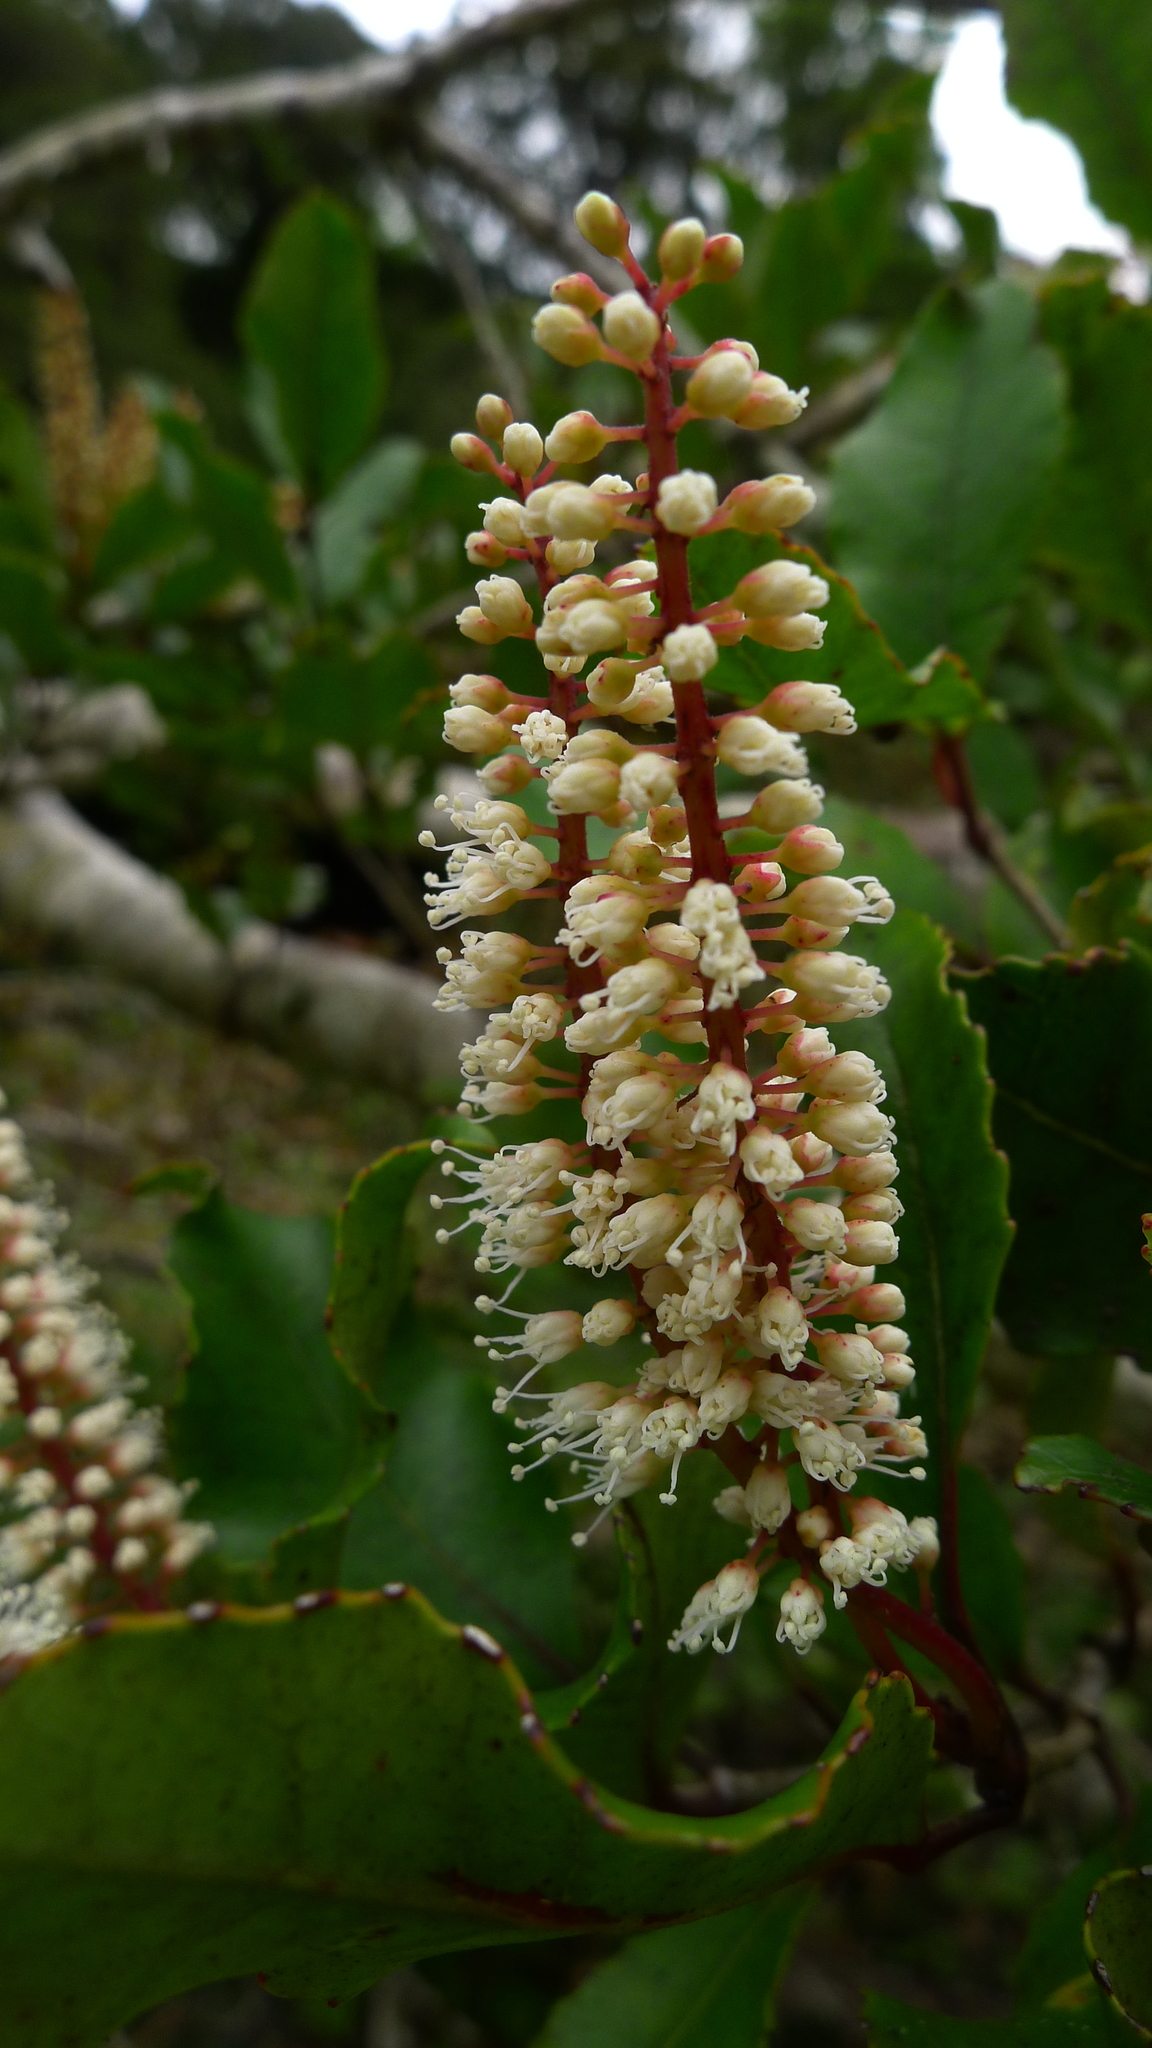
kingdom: Plantae
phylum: Tracheophyta
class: Magnoliopsida
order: Oxalidales
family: Cunoniaceae
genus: Pterophylla
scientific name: Pterophylla racemosa
